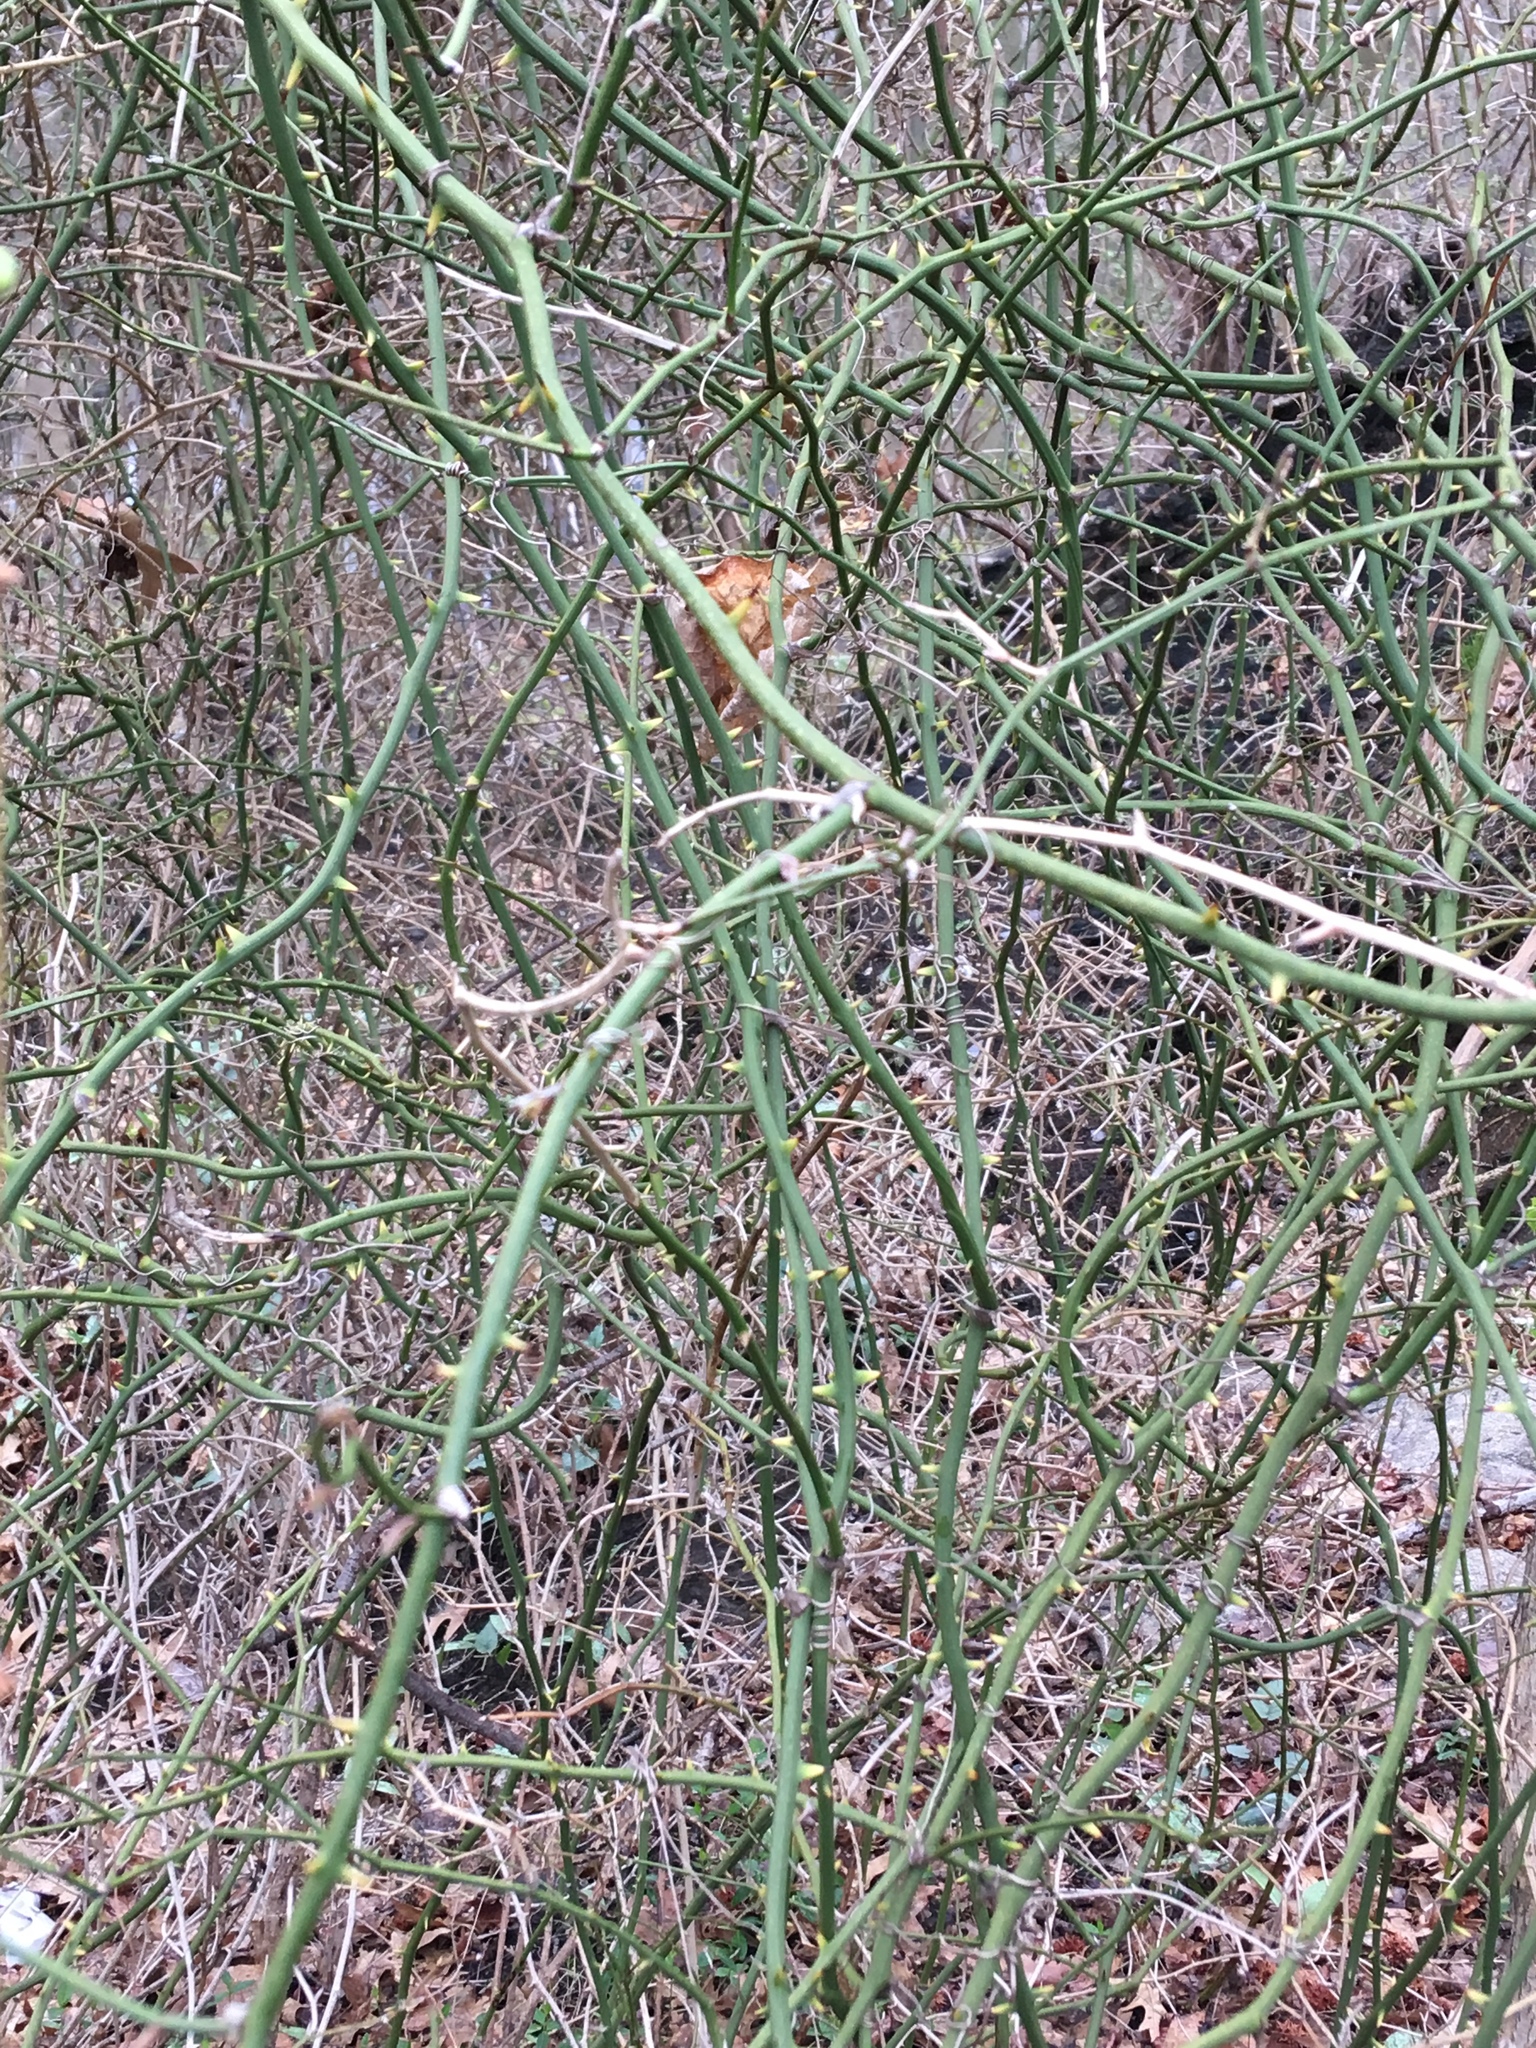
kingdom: Plantae
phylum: Tracheophyta
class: Liliopsida
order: Liliales
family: Smilacaceae
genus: Smilax
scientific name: Smilax rotundifolia
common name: Bullbriar
